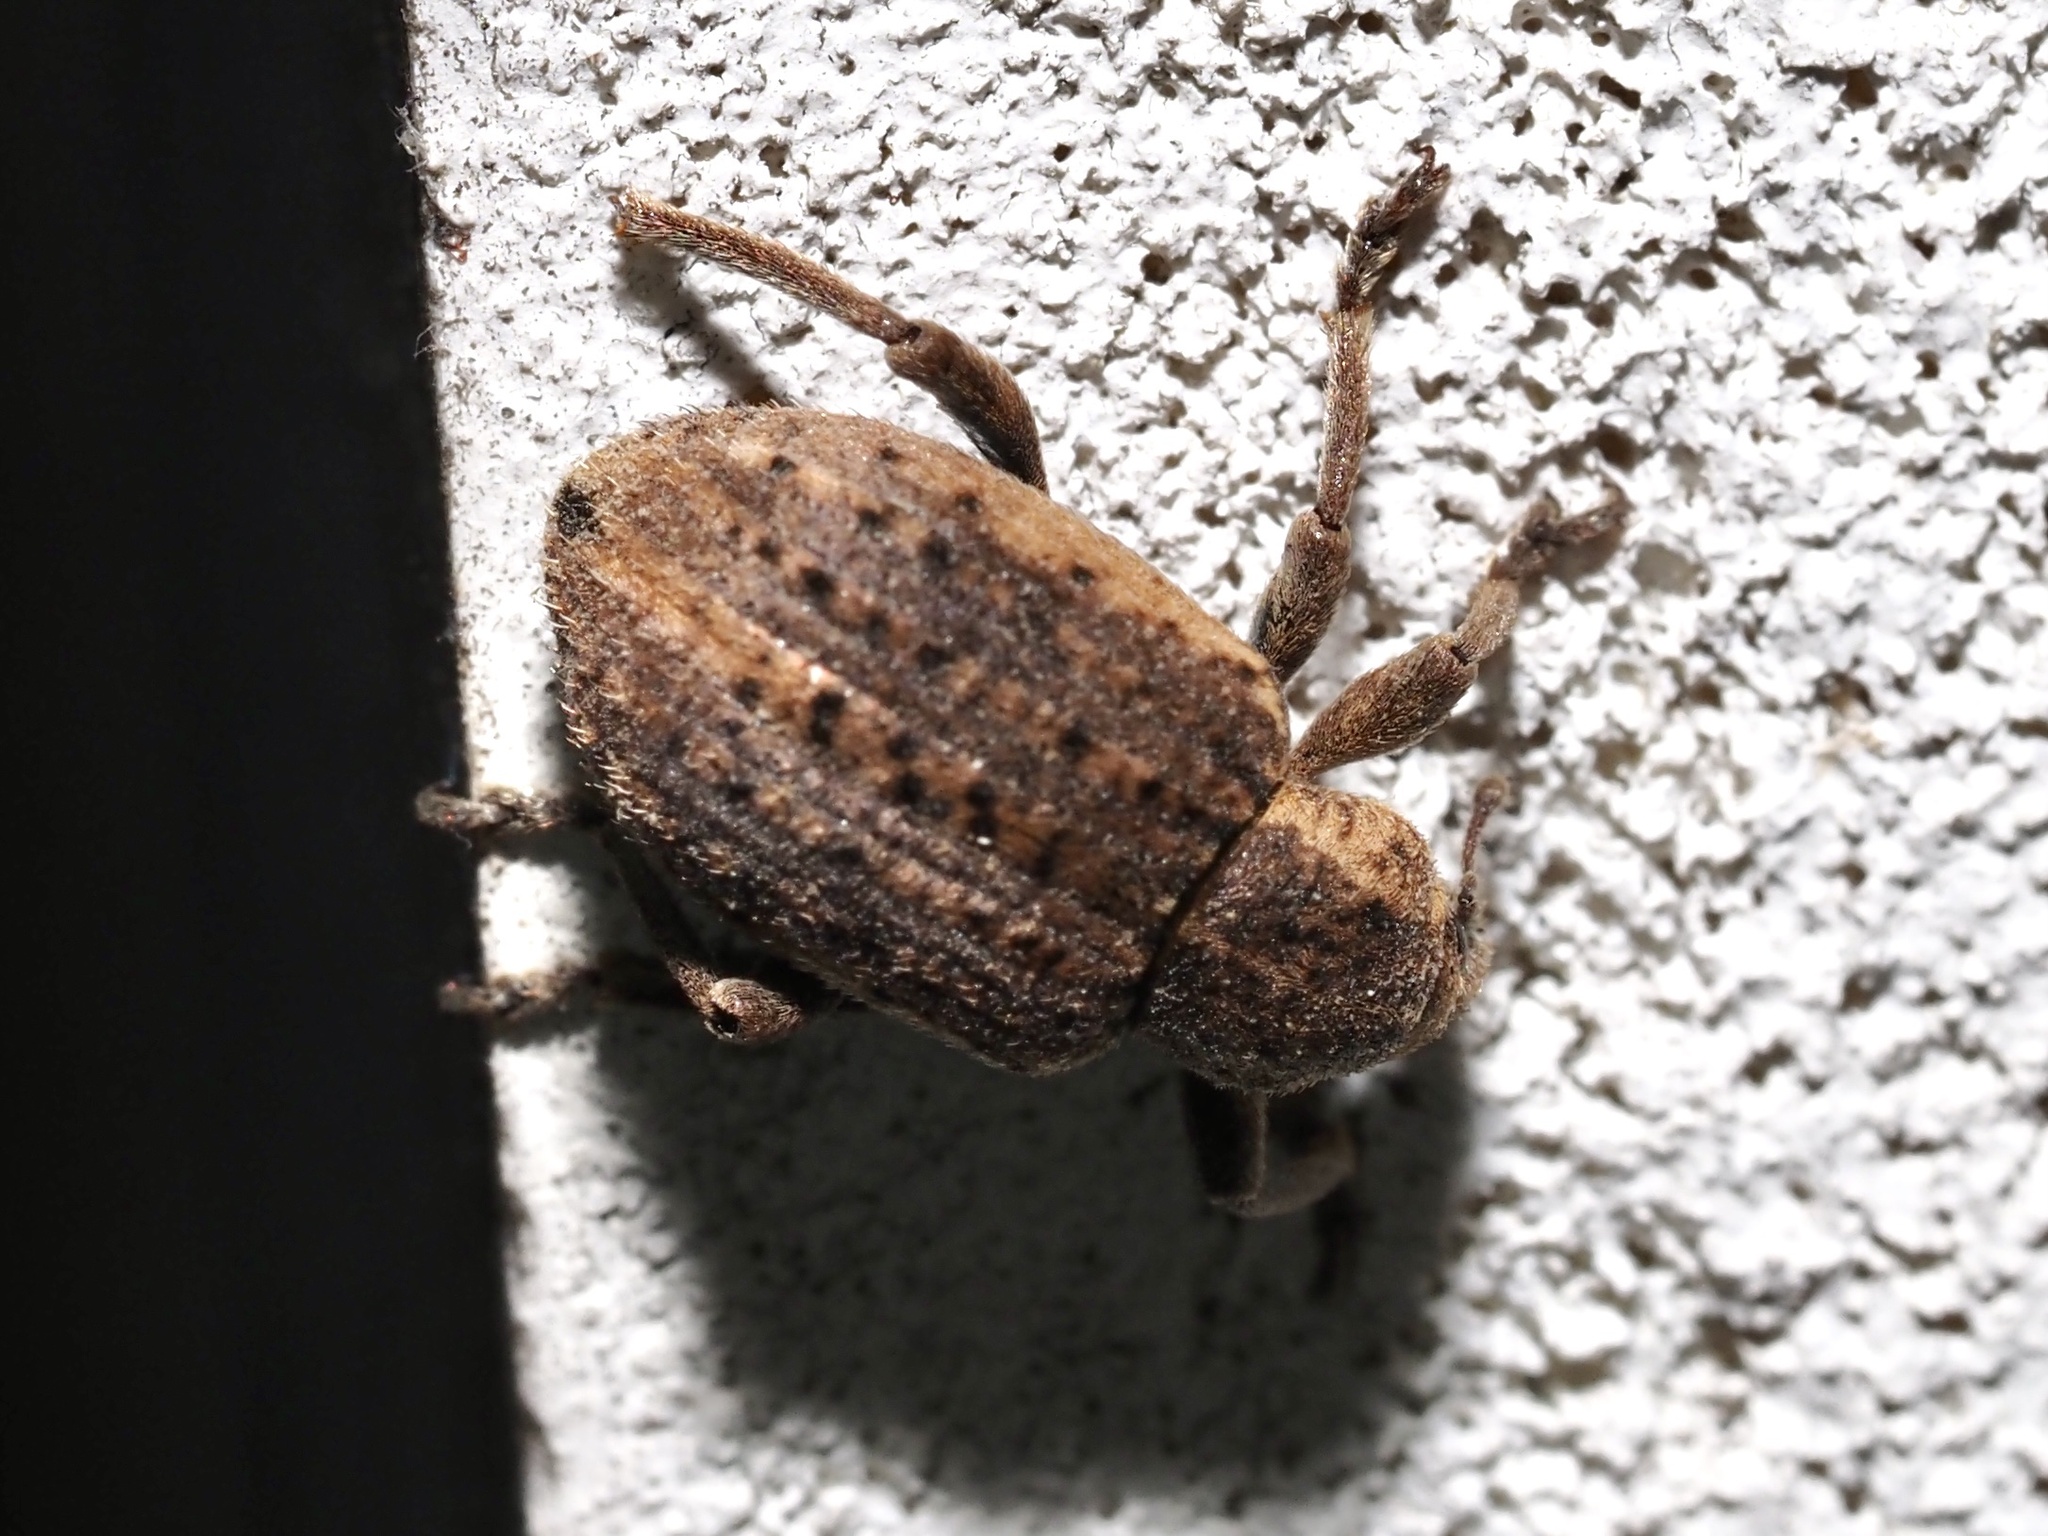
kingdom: Animalia
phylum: Arthropoda
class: Insecta
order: Coleoptera
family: Curculionidae
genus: Brachypera
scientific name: Brachypera zoilus
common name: Clover leaf weevil
